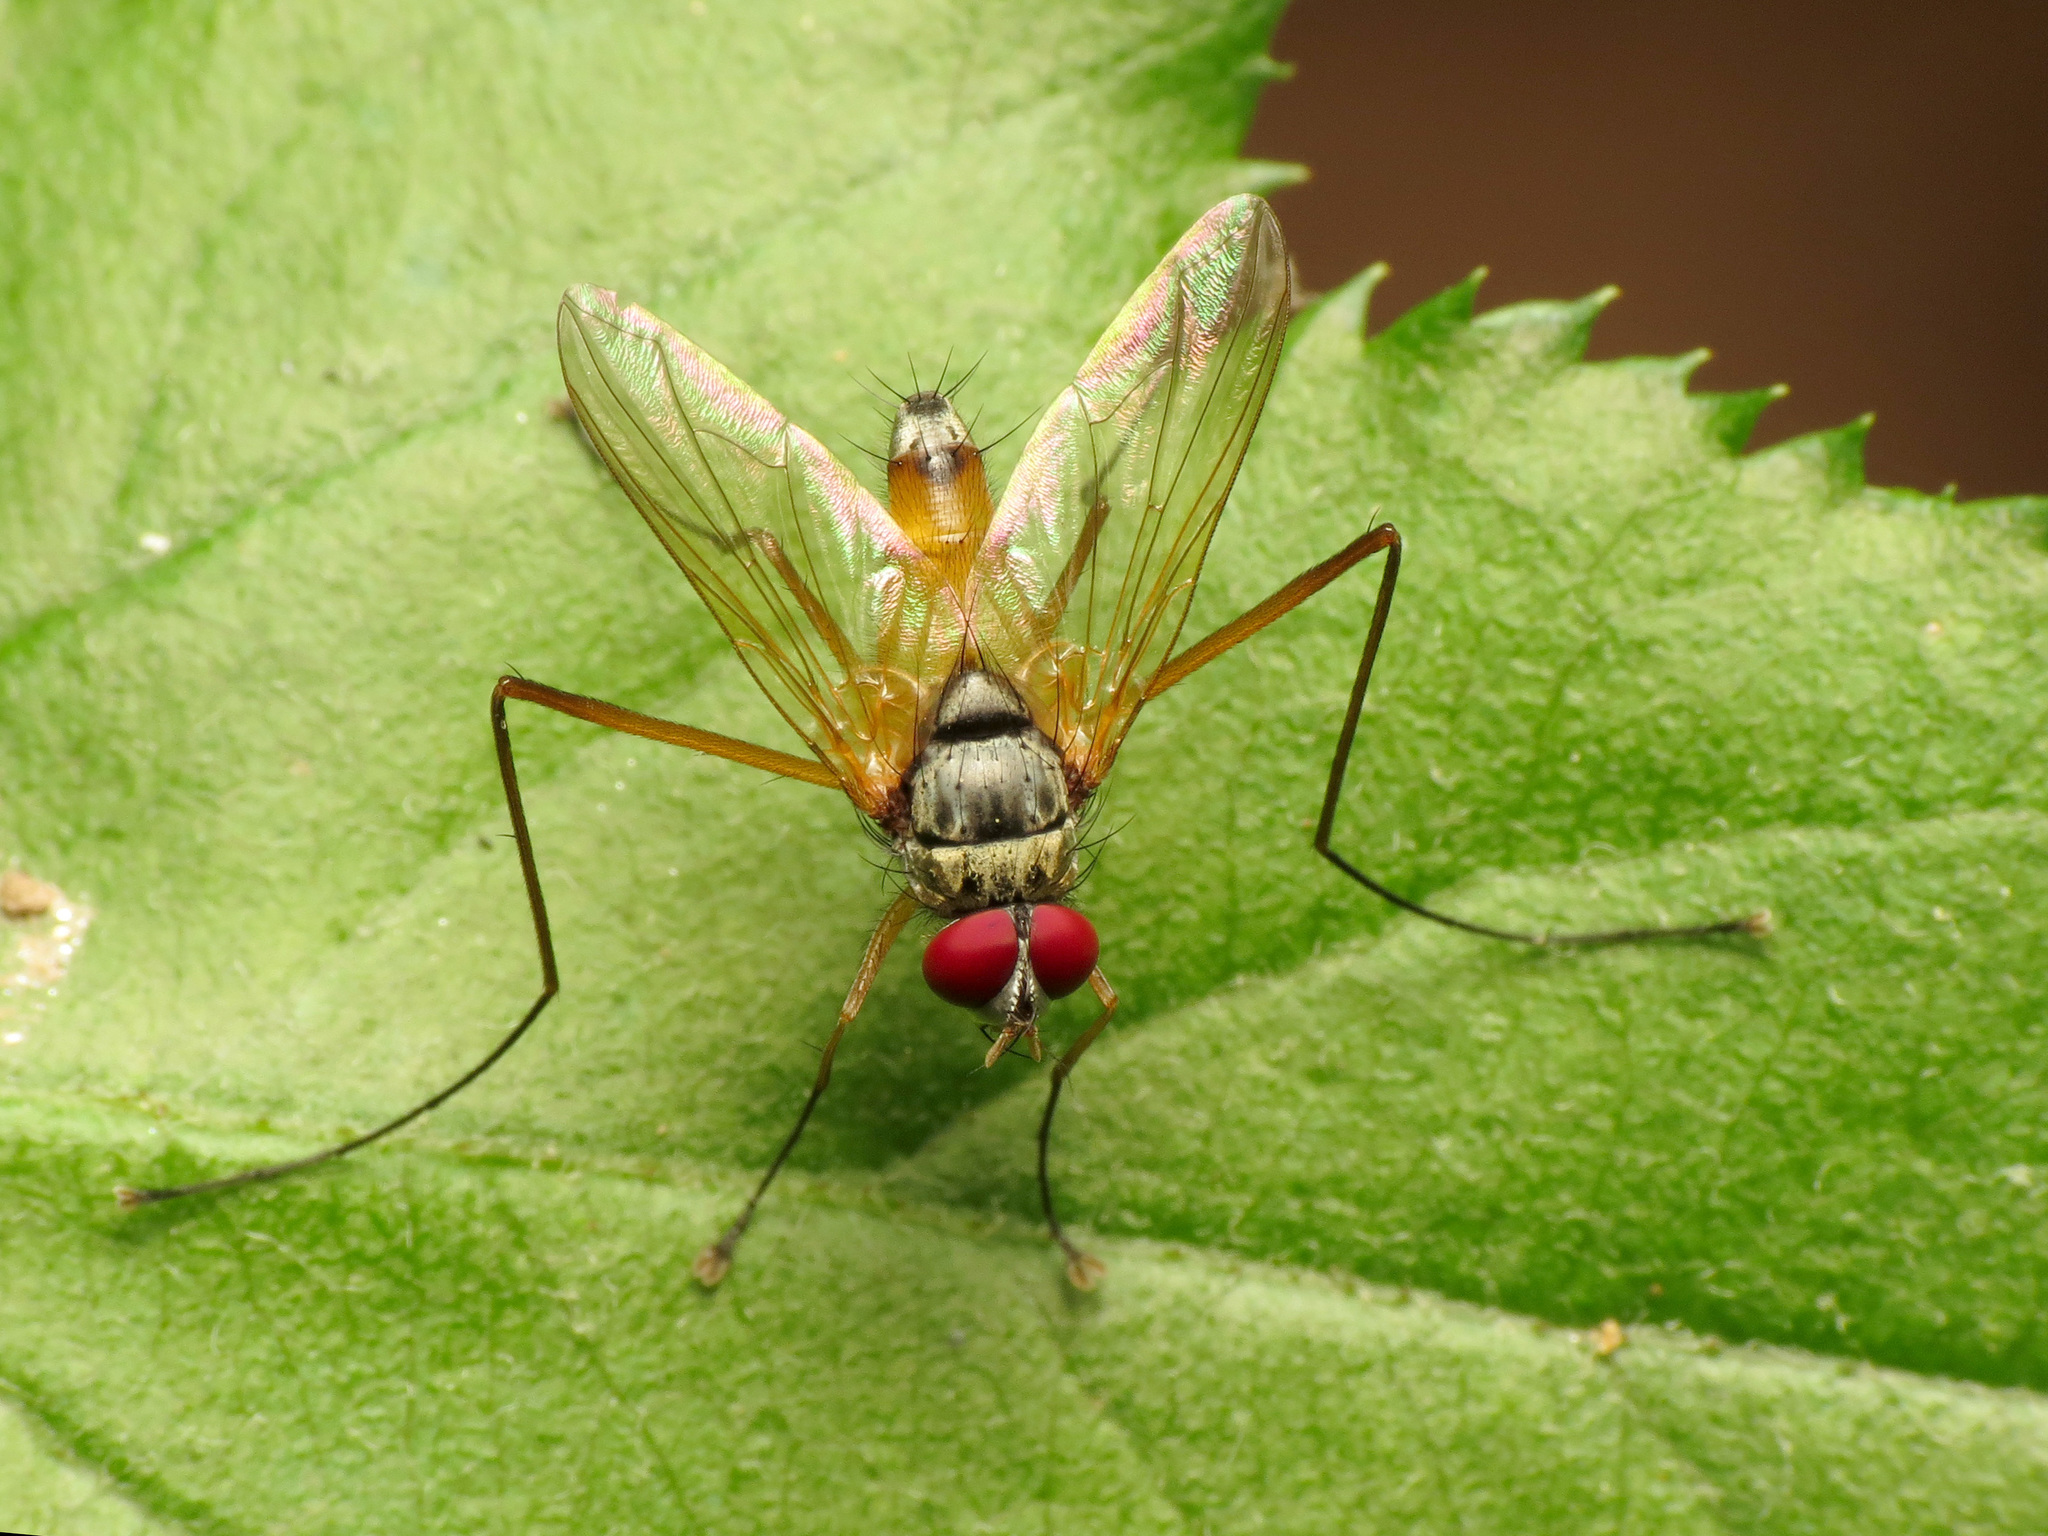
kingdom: Animalia
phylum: Arthropoda
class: Insecta
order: Diptera
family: Tachinidae
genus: Cholomyia
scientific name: Cholomyia inaequipes
